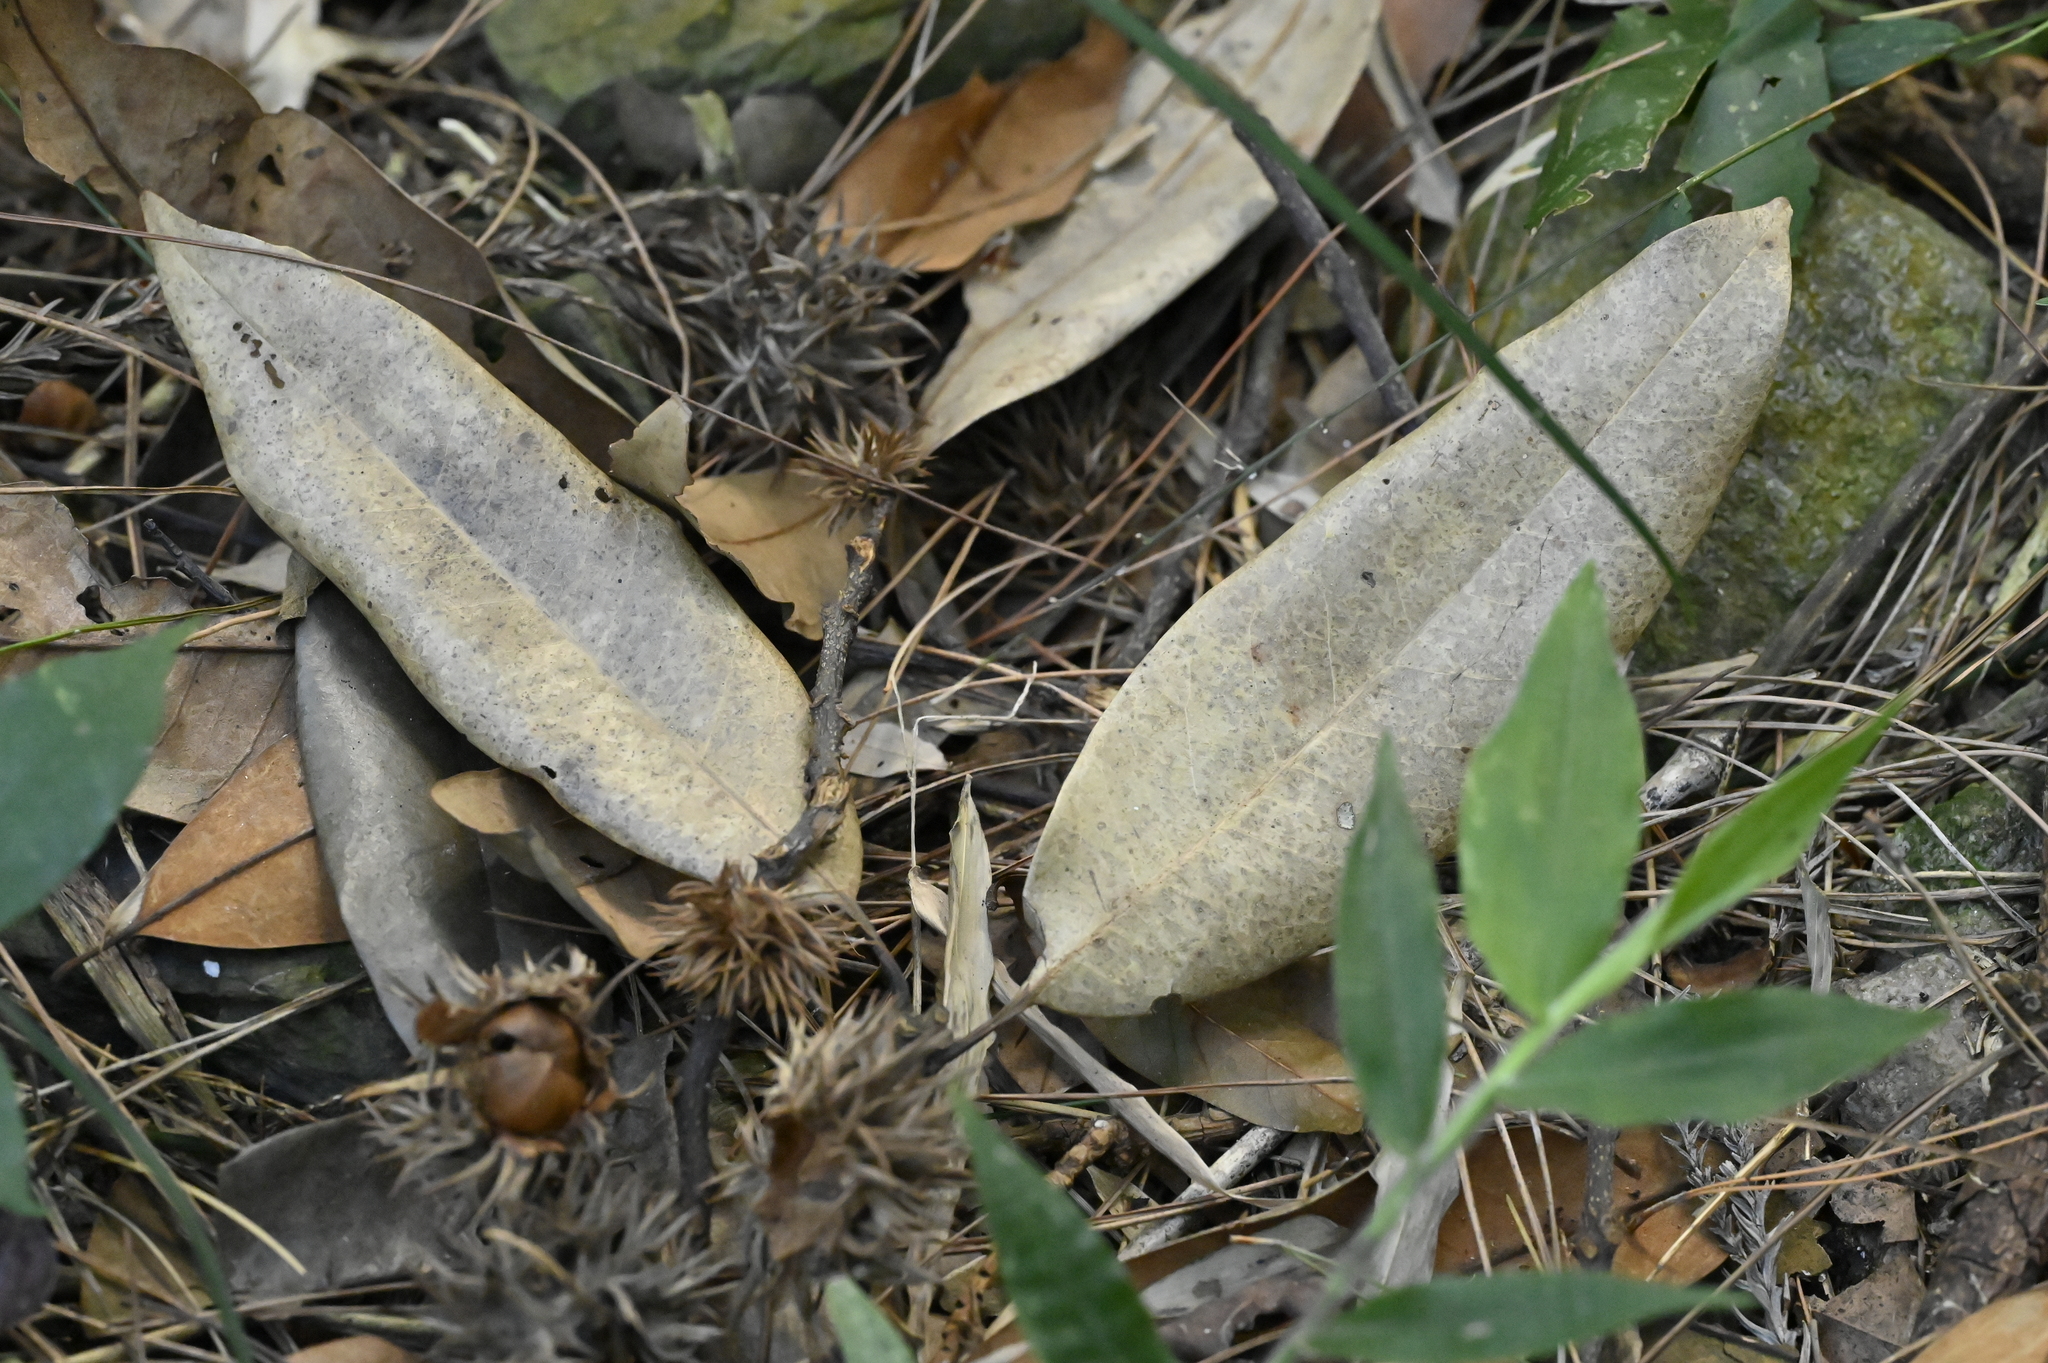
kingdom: Plantae
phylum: Tracheophyta
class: Magnoliopsida
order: Fagales
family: Fagaceae
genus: Castanopsis
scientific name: Castanopsis fargesii
